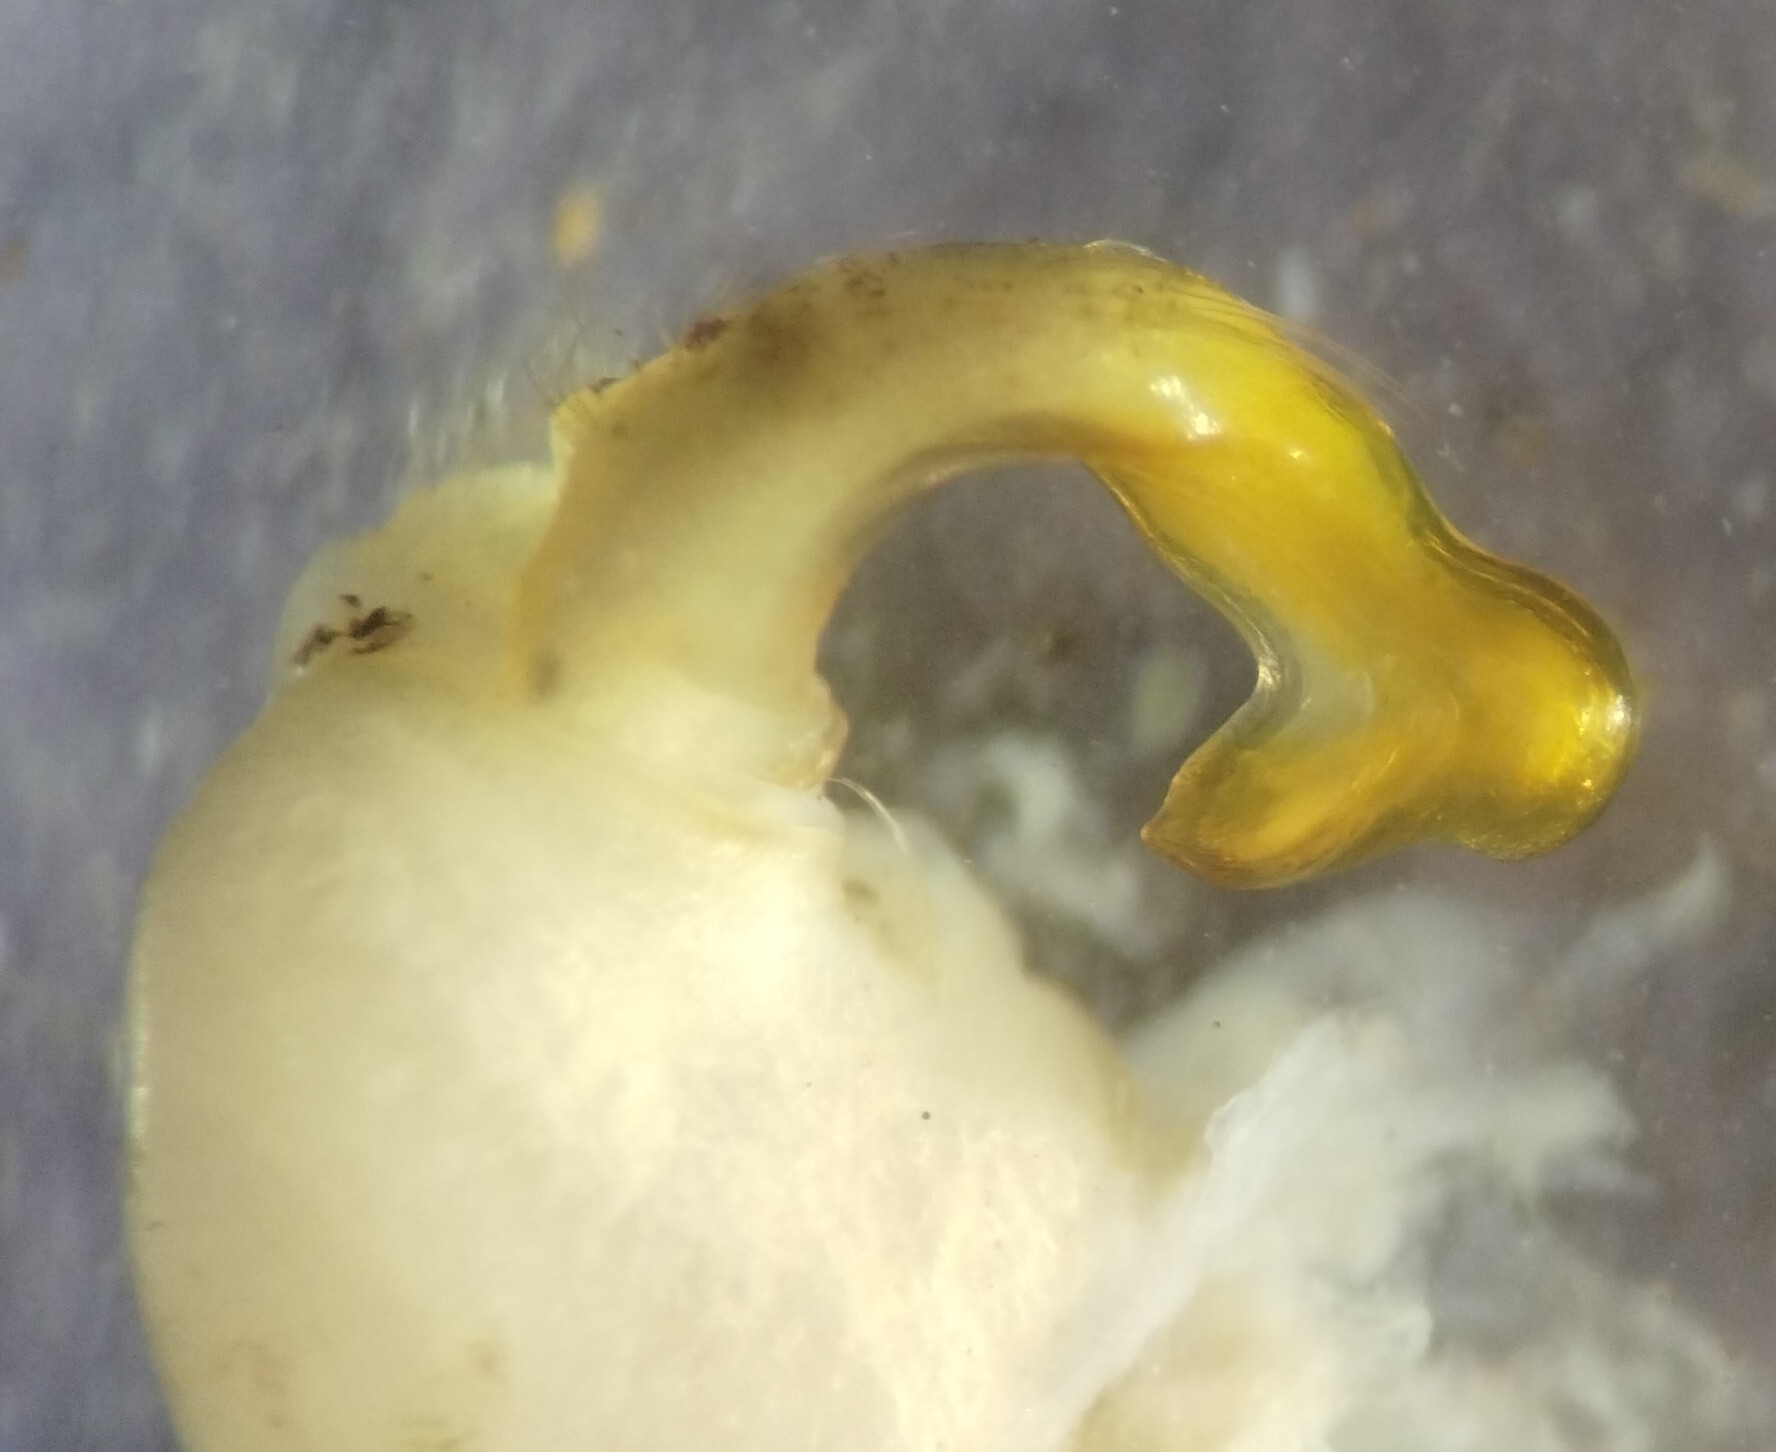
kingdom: Animalia
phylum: Arthropoda
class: Diplopoda
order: Polydesmida
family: Xystodesmidae
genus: Cleptoria
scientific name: Cleptoria rileyi
